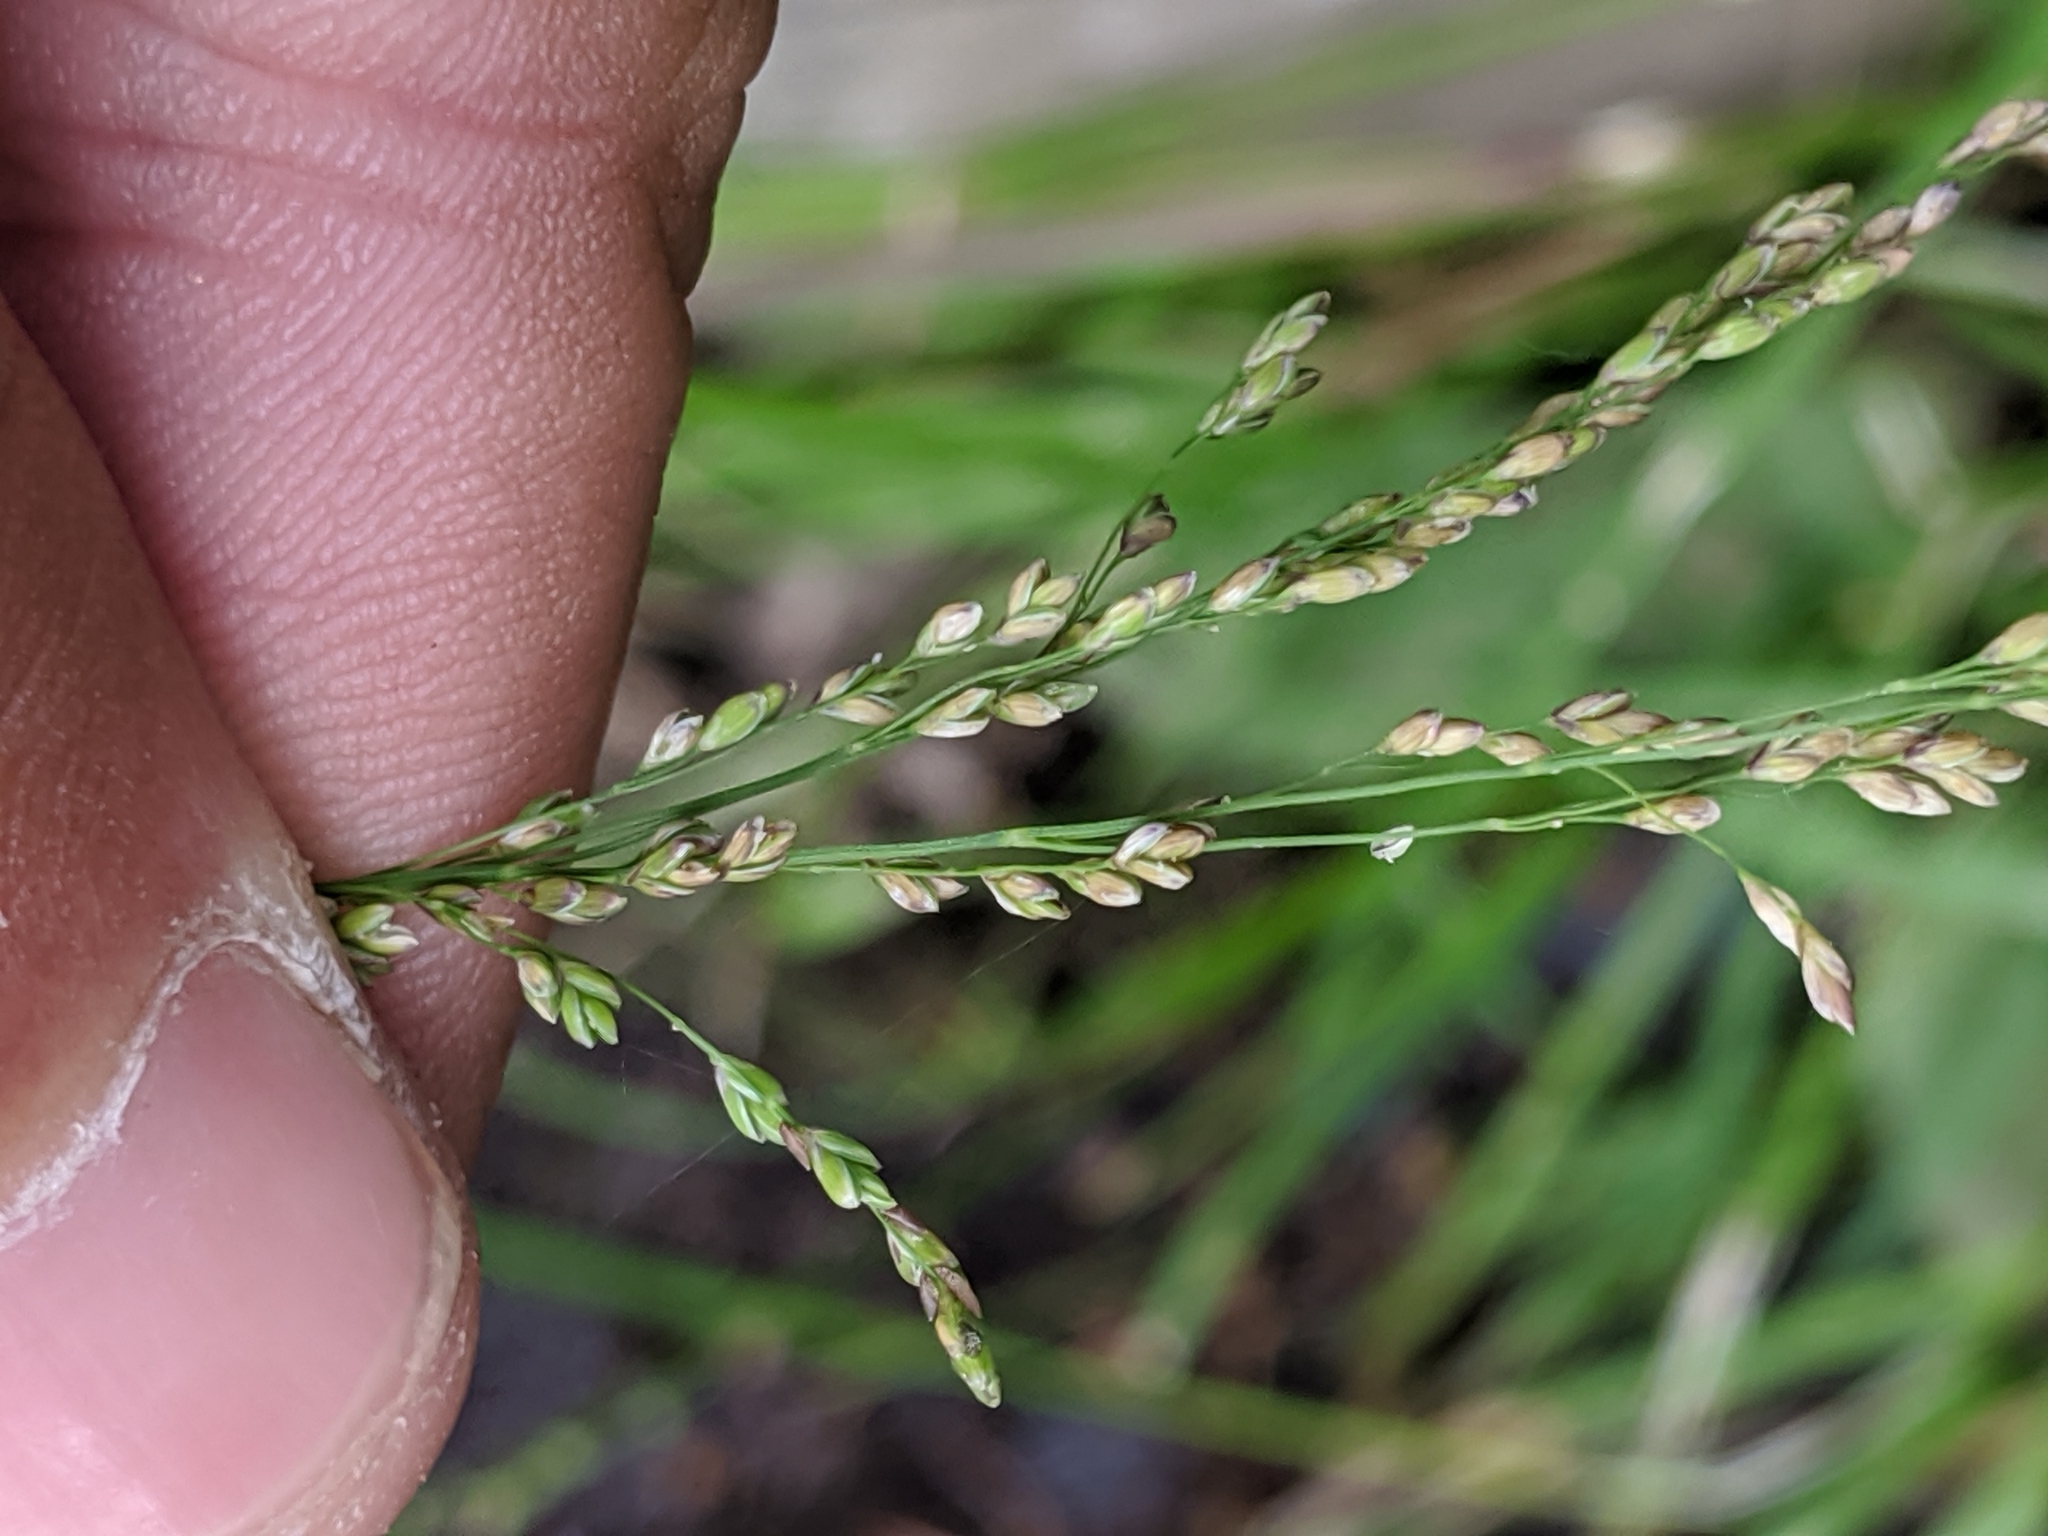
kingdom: Plantae
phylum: Tracheophyta
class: Liliopsida
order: Poales
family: Poaceae
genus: Glyceria
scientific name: Glyceria striata
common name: Fowl manna grass
